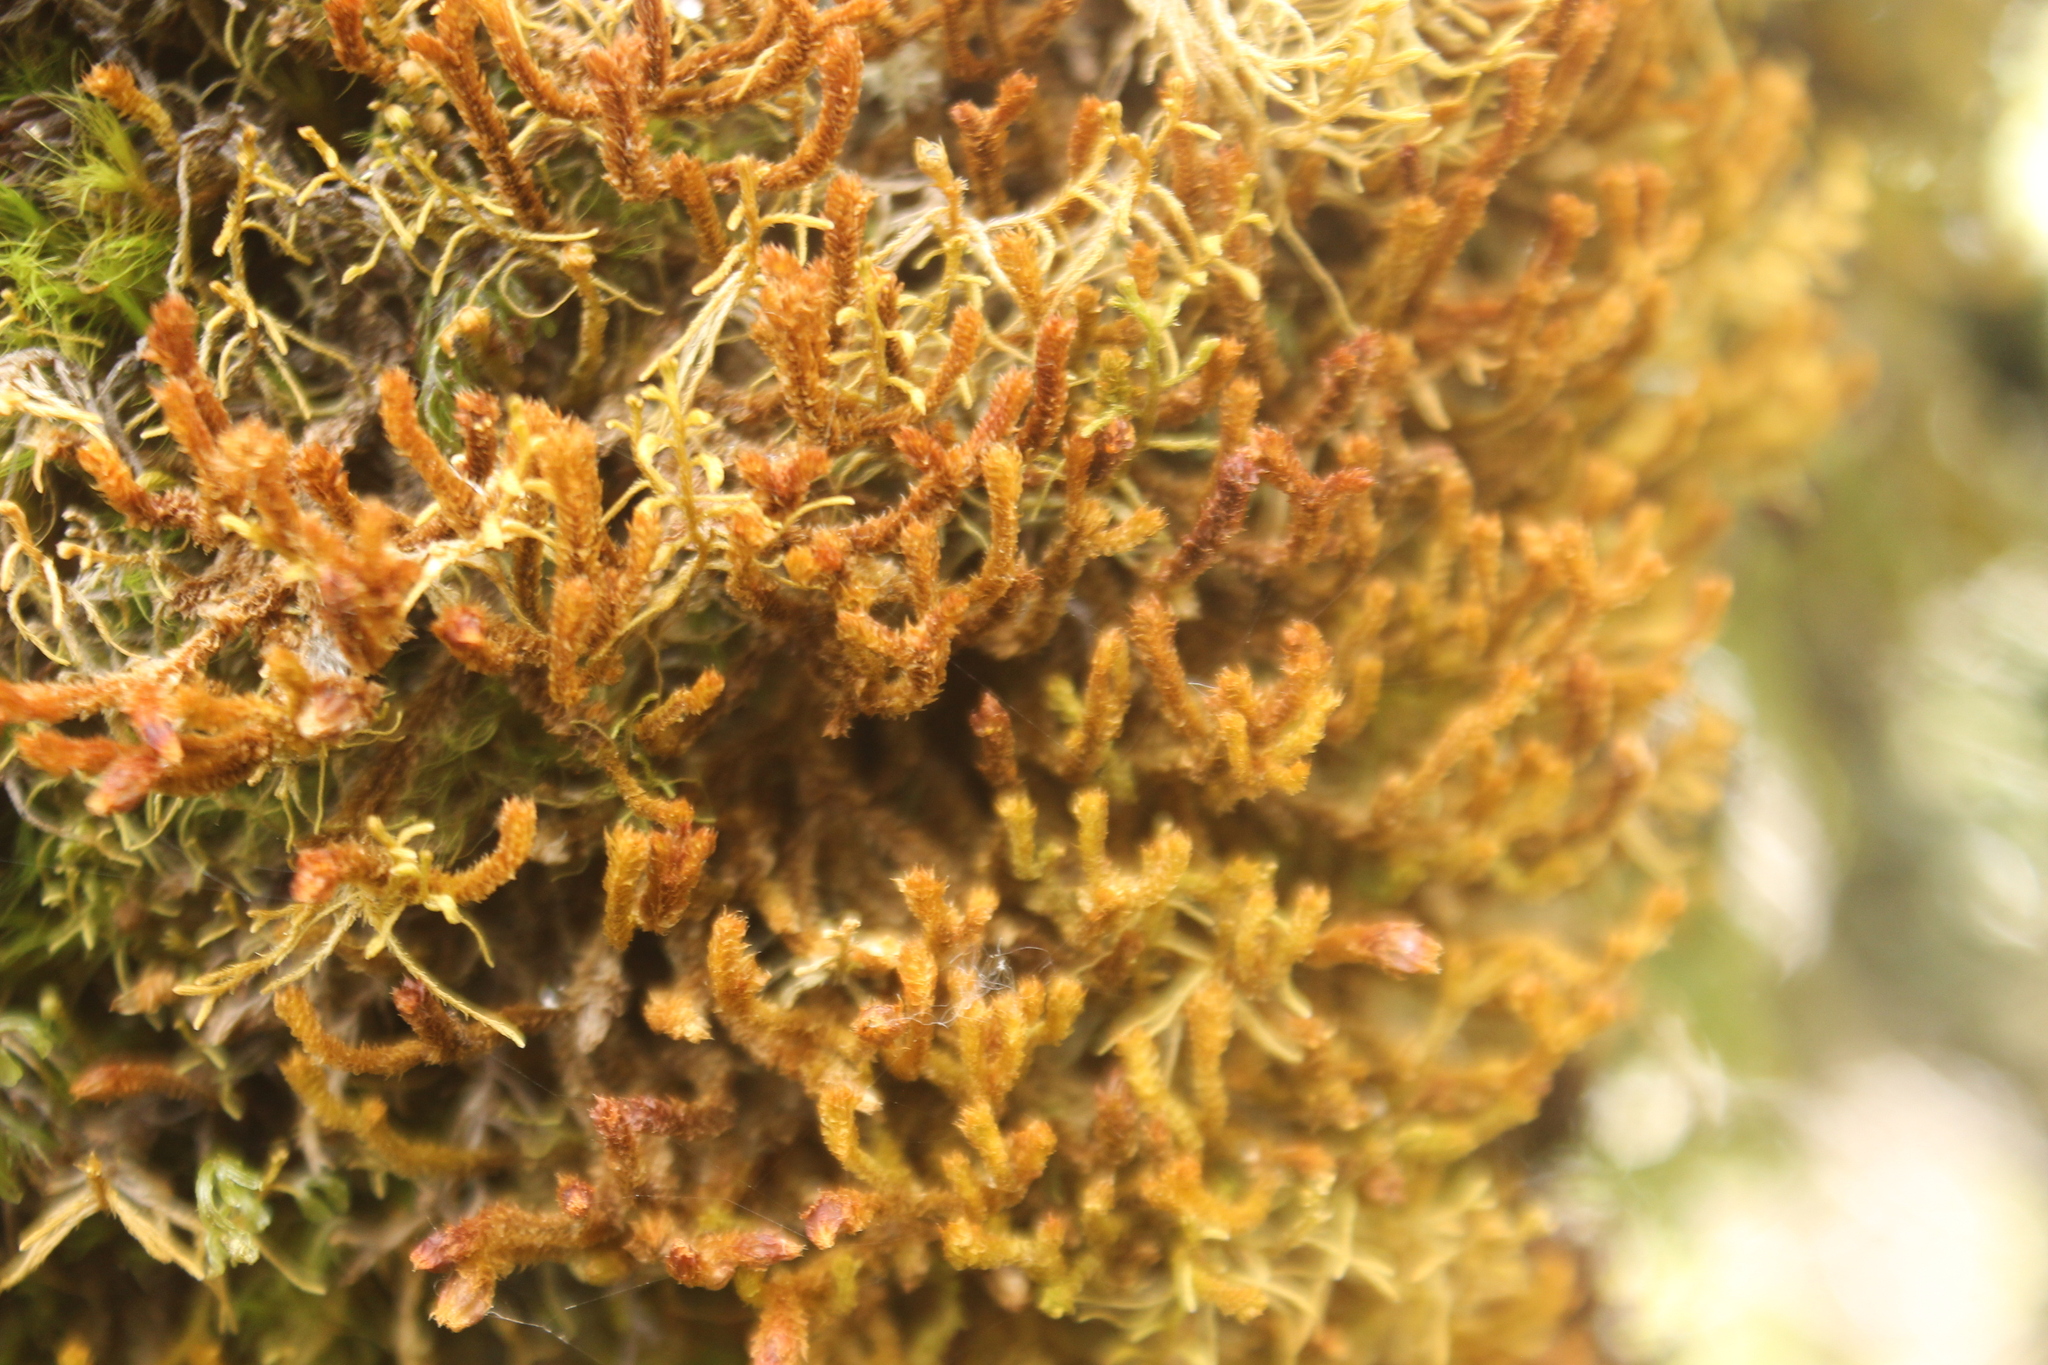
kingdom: Plantae
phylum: Marchantiophyta
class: Jungermanniopsida
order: Jungermanniales
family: Anastrophyllaceae
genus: Chandonanthus
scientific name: Chandonanthus squarrosus
